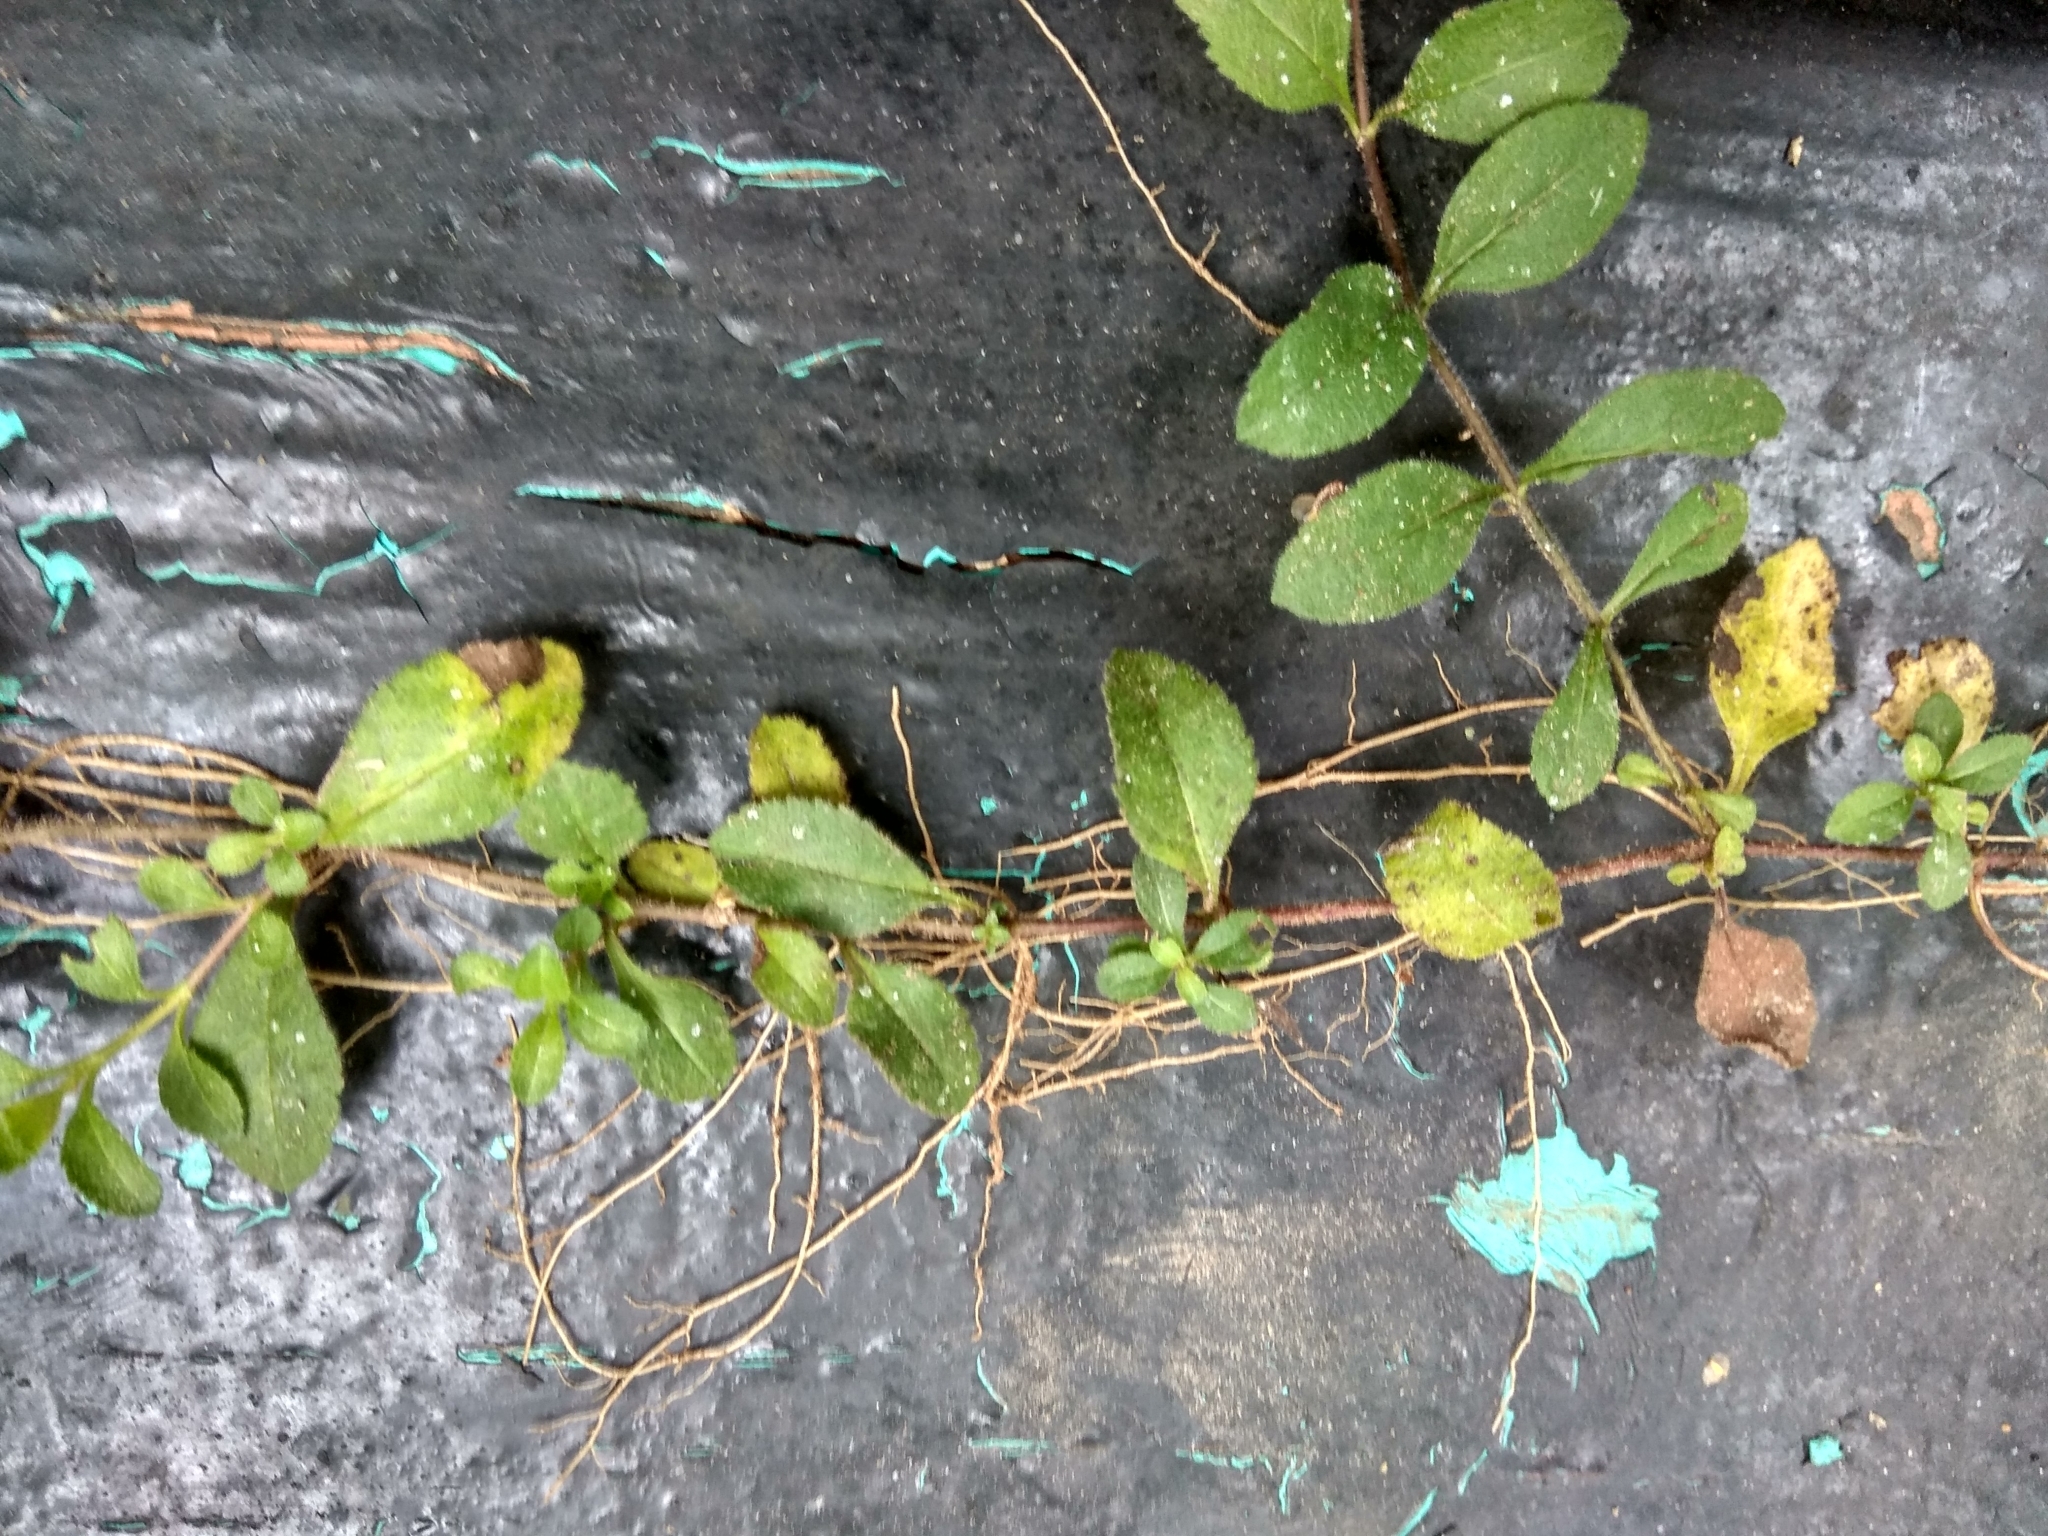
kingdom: Plantae
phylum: Tracheophyta
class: Magnoliopsida
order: Lamiales
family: Plantaginaceae
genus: Veronica
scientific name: Veronica officinalis
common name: Common speedwell
